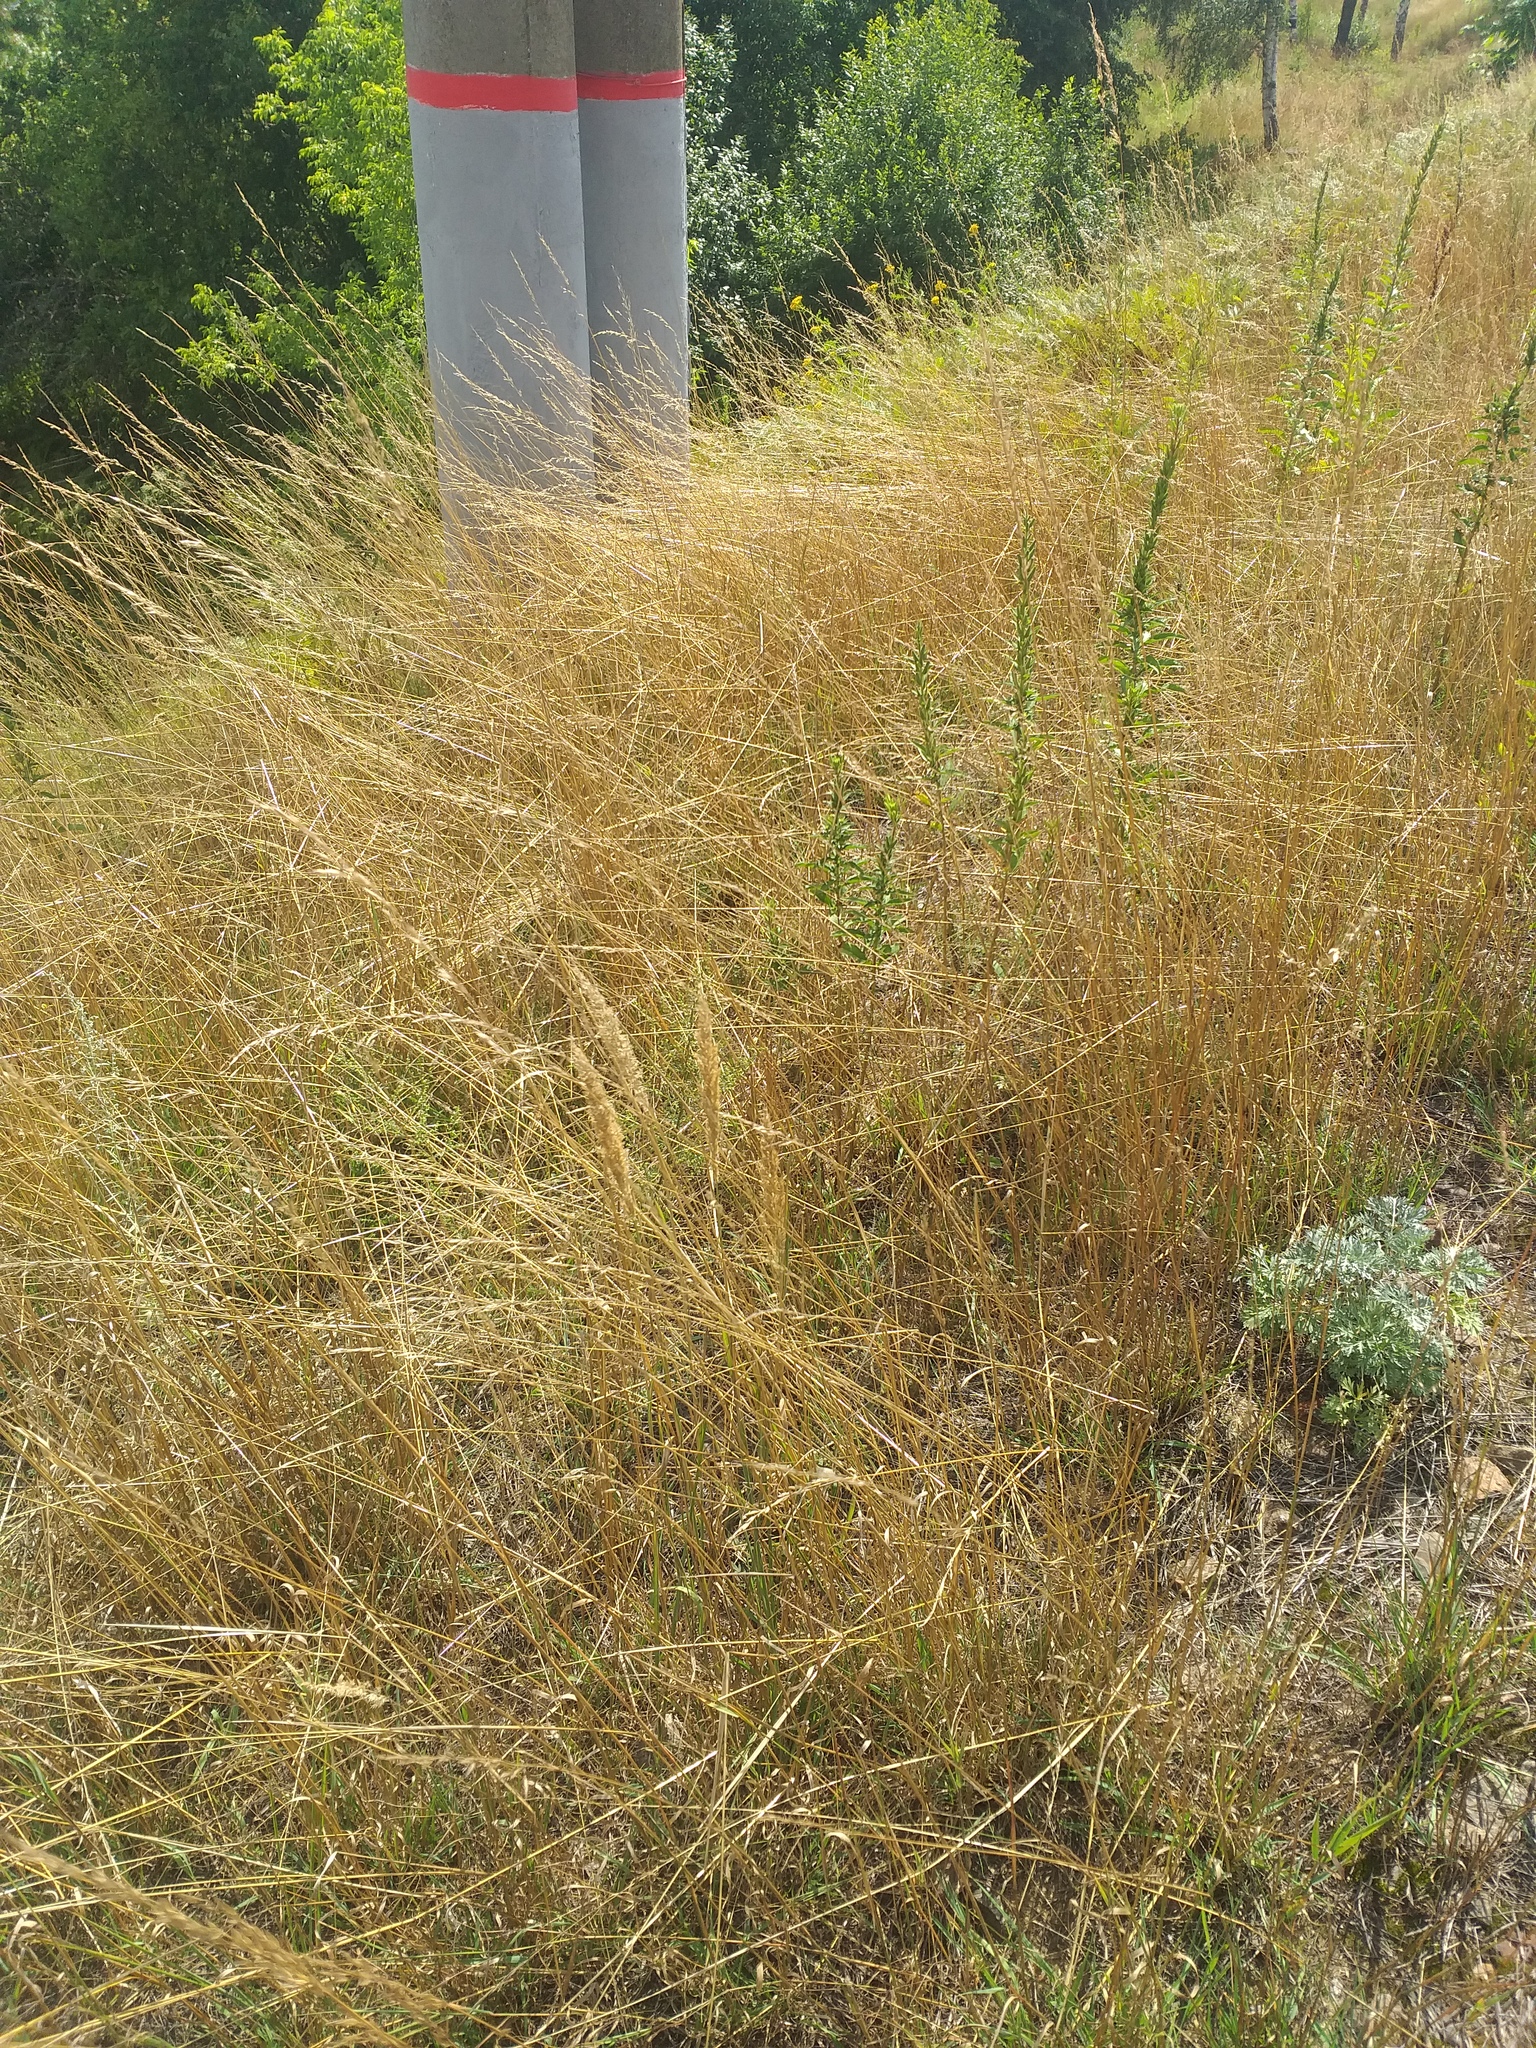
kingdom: Plantae
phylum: Tracheophyta
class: Liliopsida
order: Poales
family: Poaceae
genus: Arrhenatherum
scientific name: Arrhenatherum elatius
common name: Tall oatgrass
